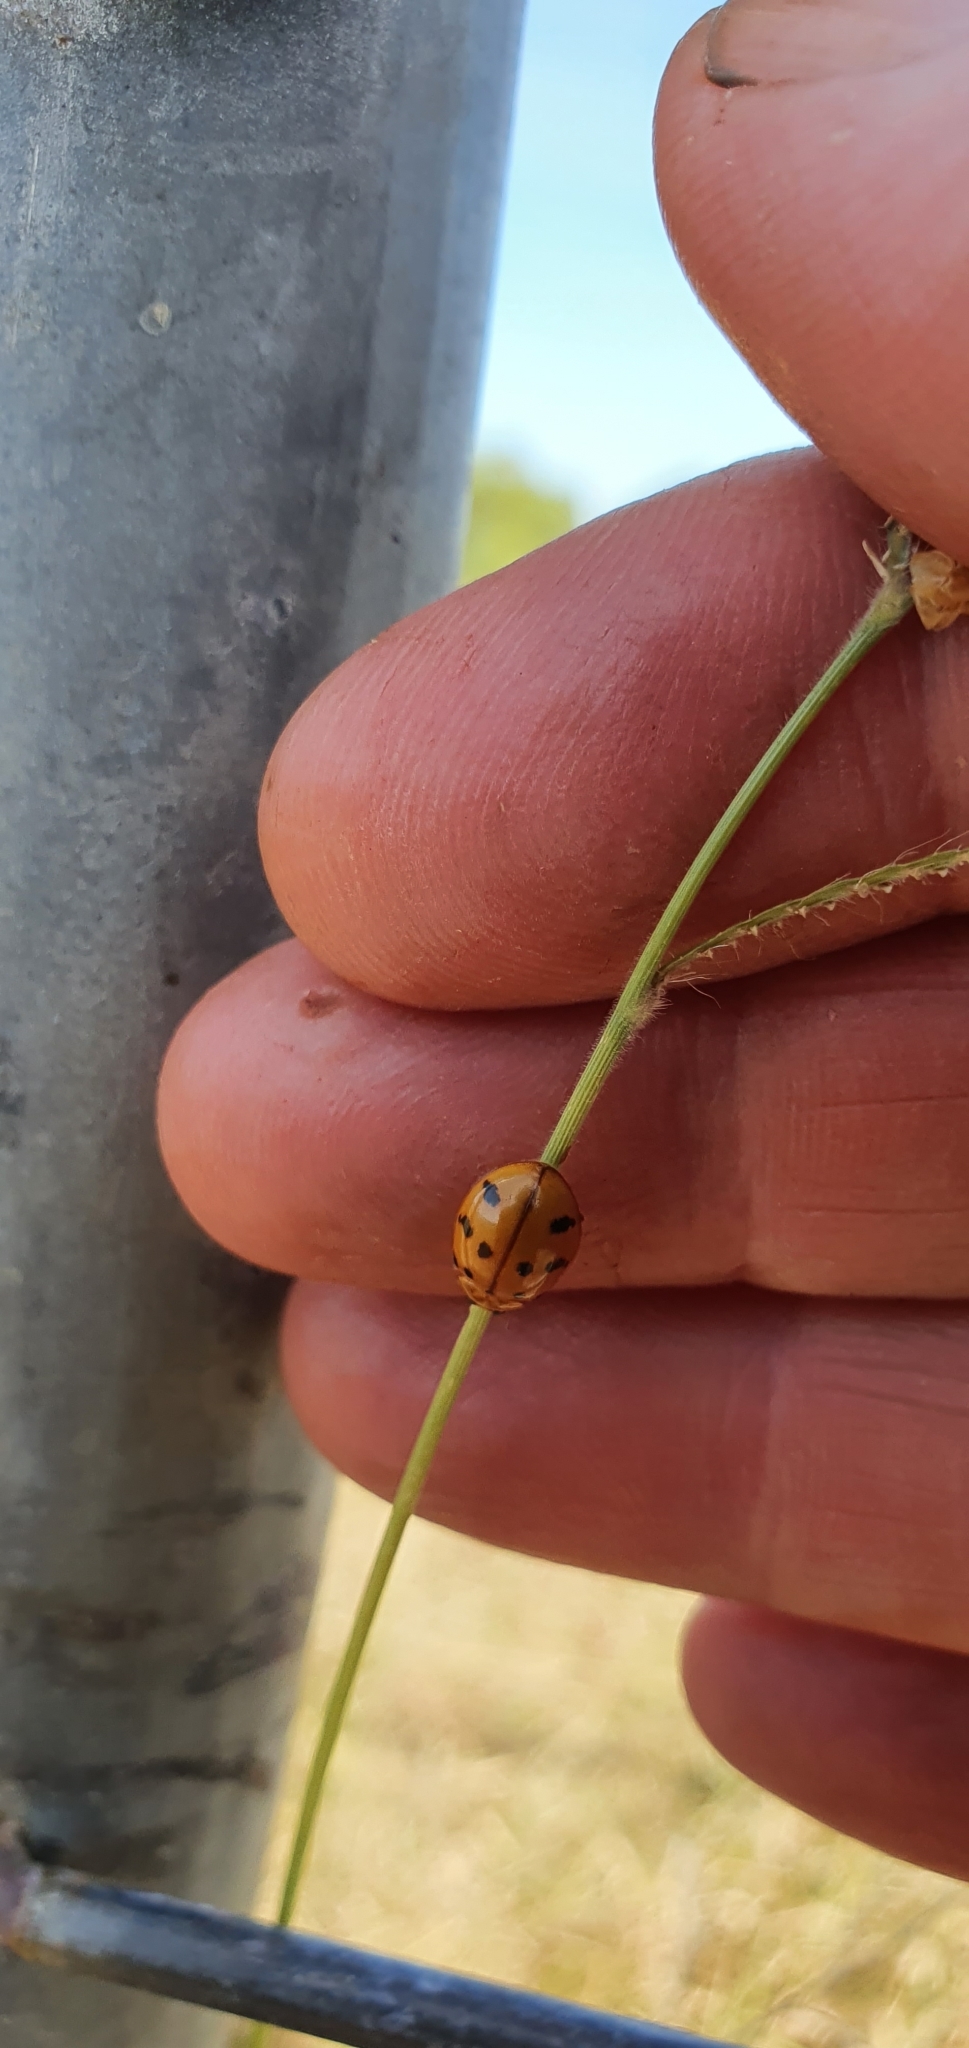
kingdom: Animalia
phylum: Arthropoda
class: Insecta
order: Coleoptera
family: Coccinellidae
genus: Harmonia
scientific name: Harmonia octomaculata
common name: Lady beetle
